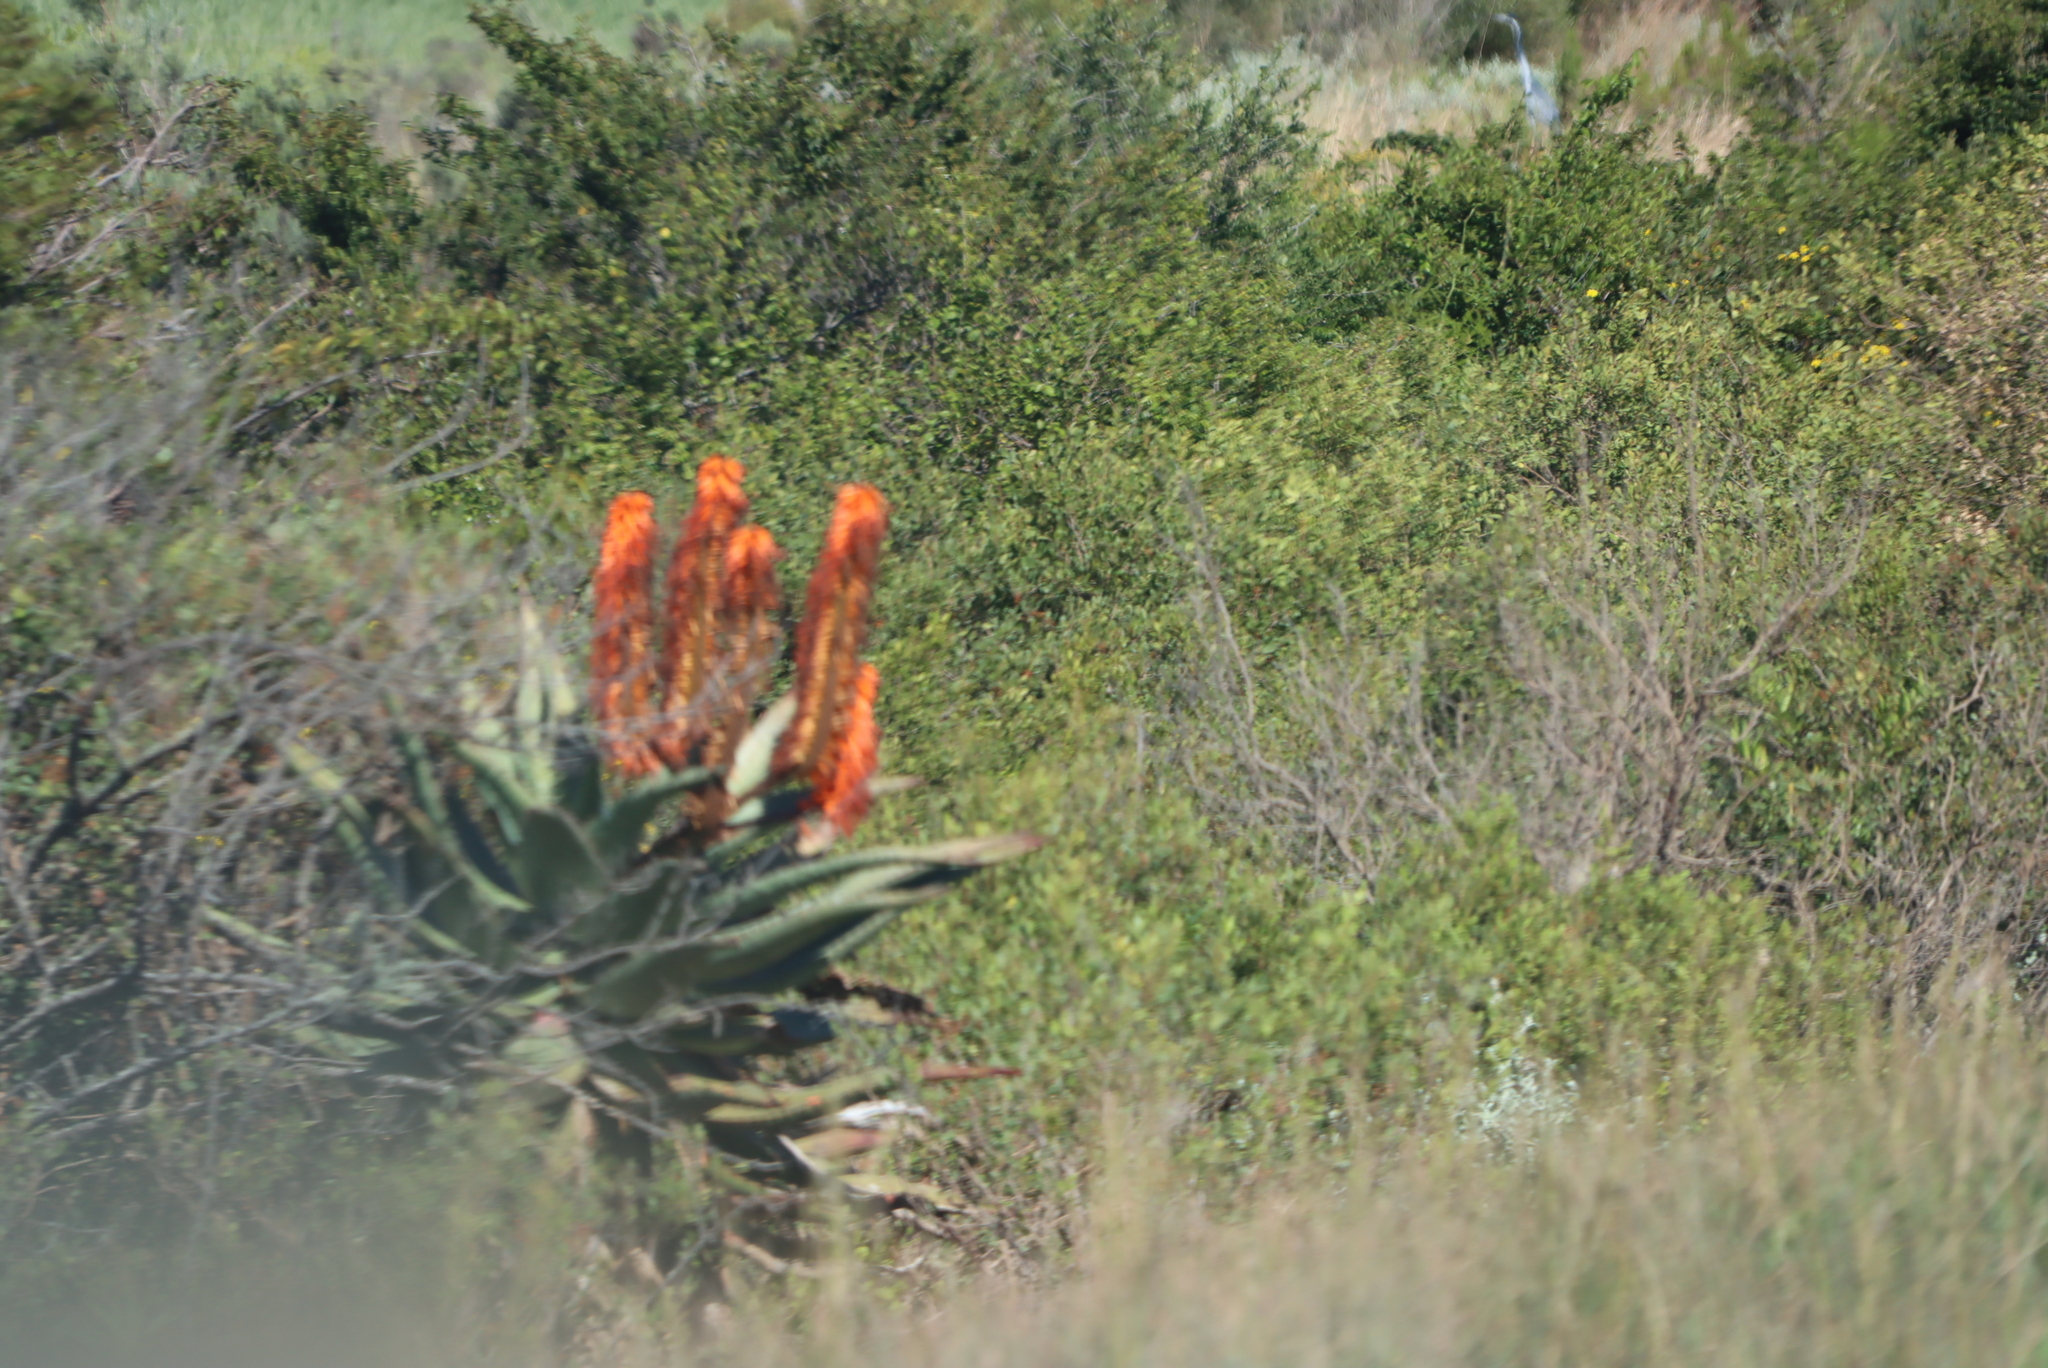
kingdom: Plantae
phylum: Tracheophyta
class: Liliopsida
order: Asparagales
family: Asphodelaceae
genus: Aloe
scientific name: Aloe ferox
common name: Bitter aloe
